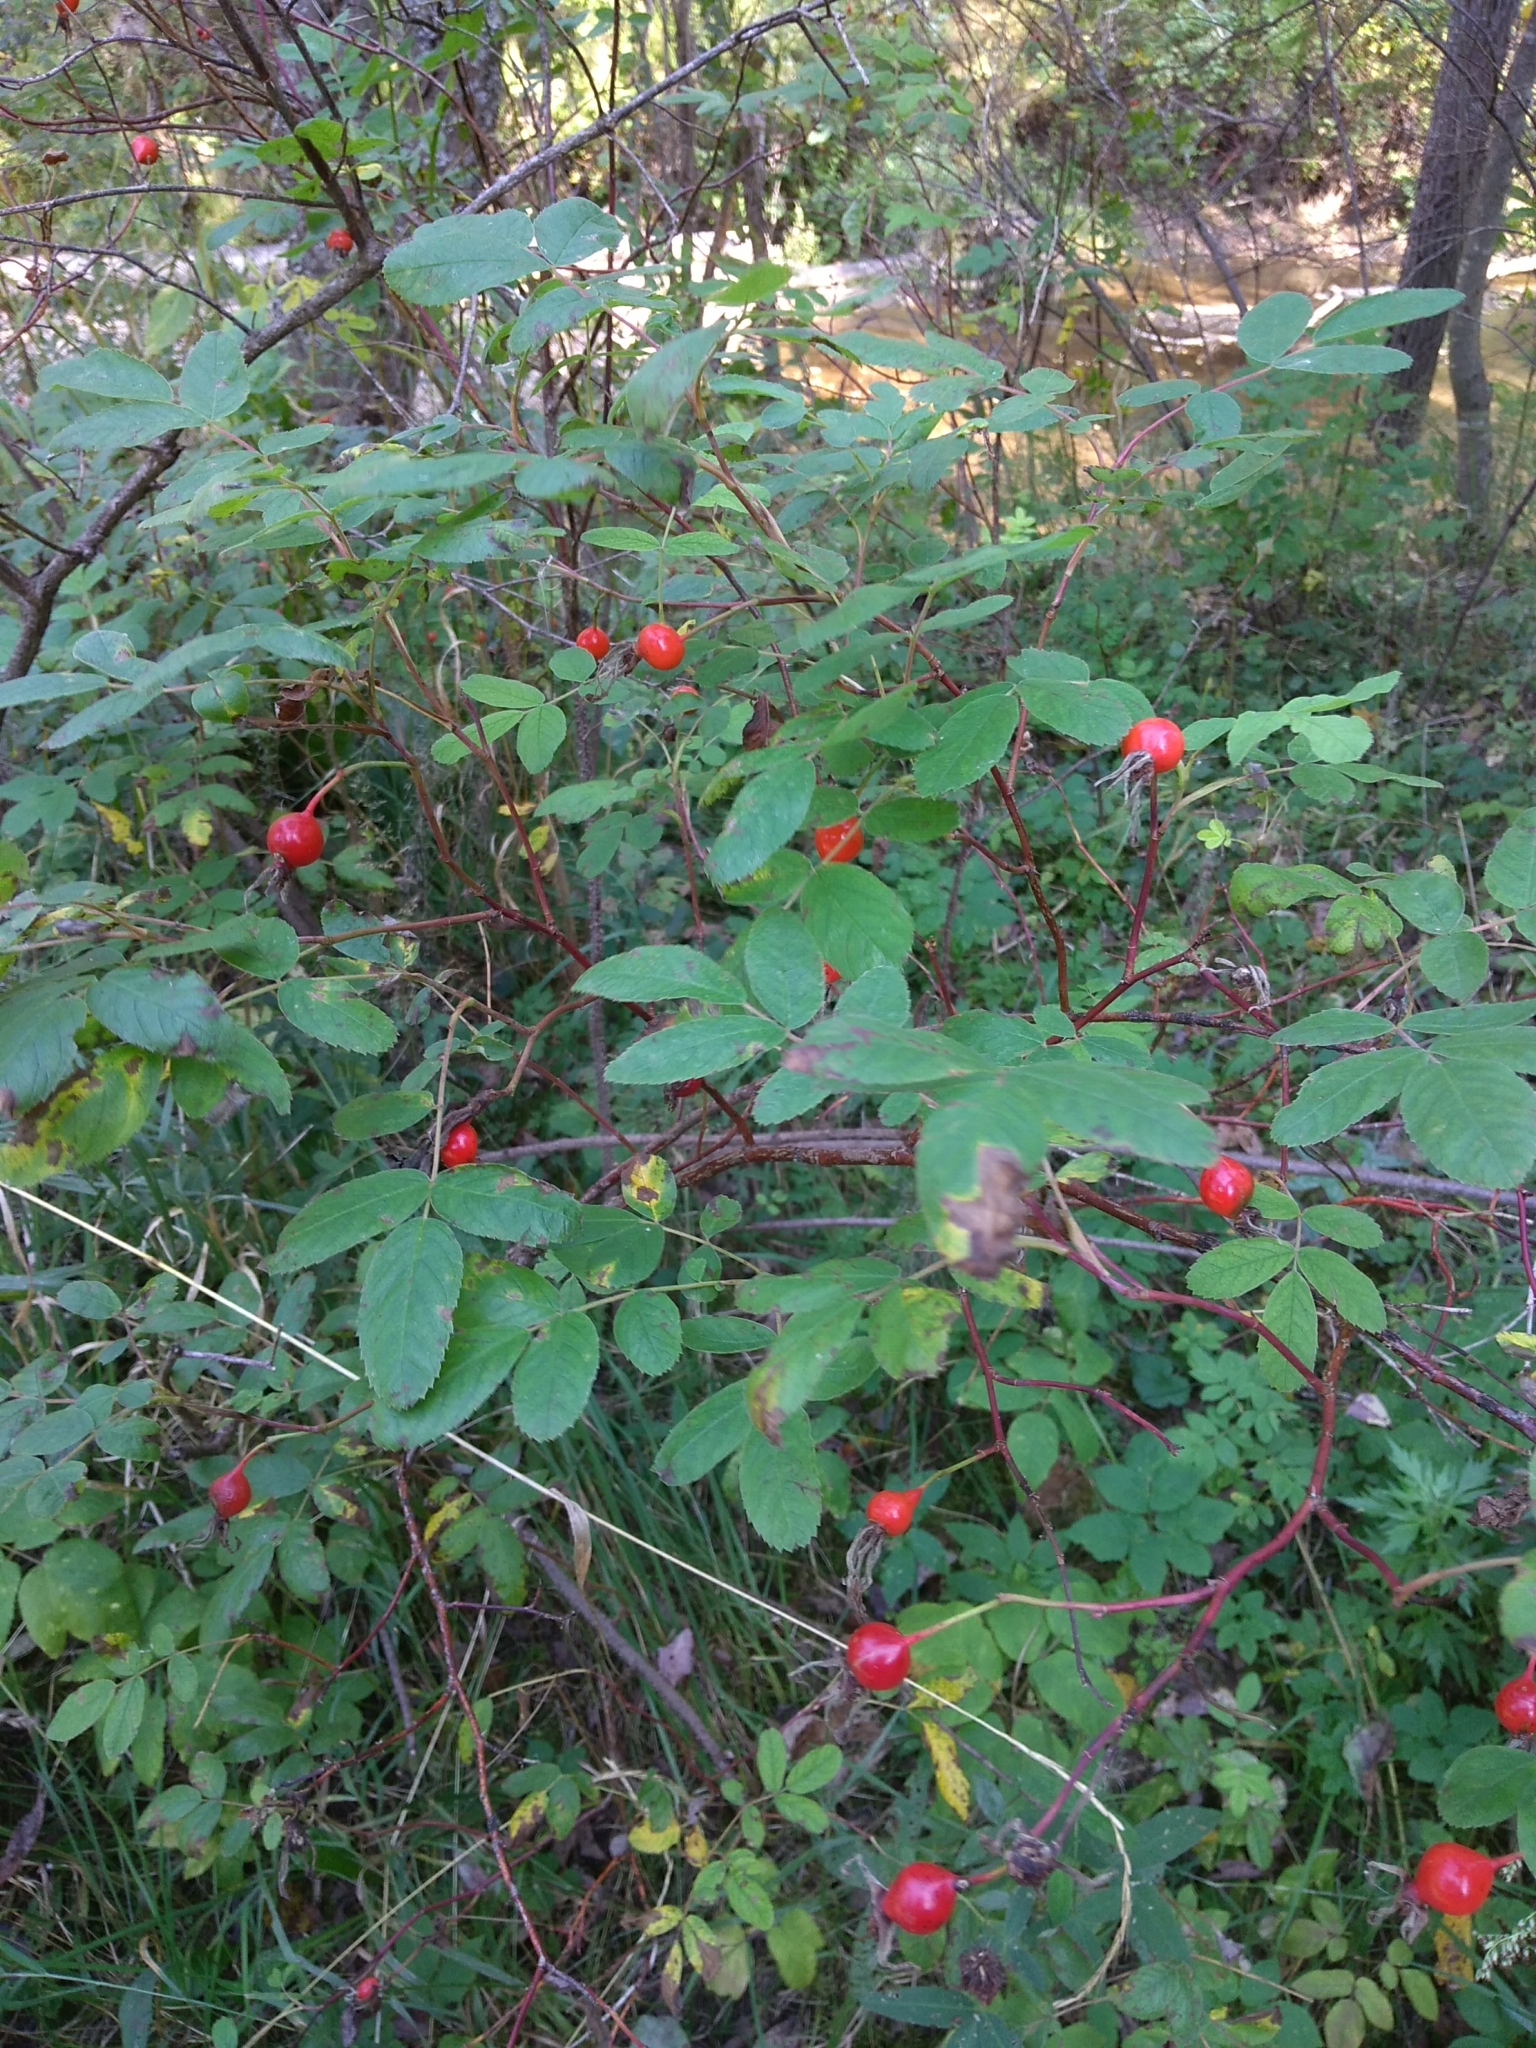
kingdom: Plantae
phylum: Tracheophyta
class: Magnoliopsida
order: Rosales
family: Rosaceae
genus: Rosa
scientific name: Rosa majalis
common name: Cinnamon rose
